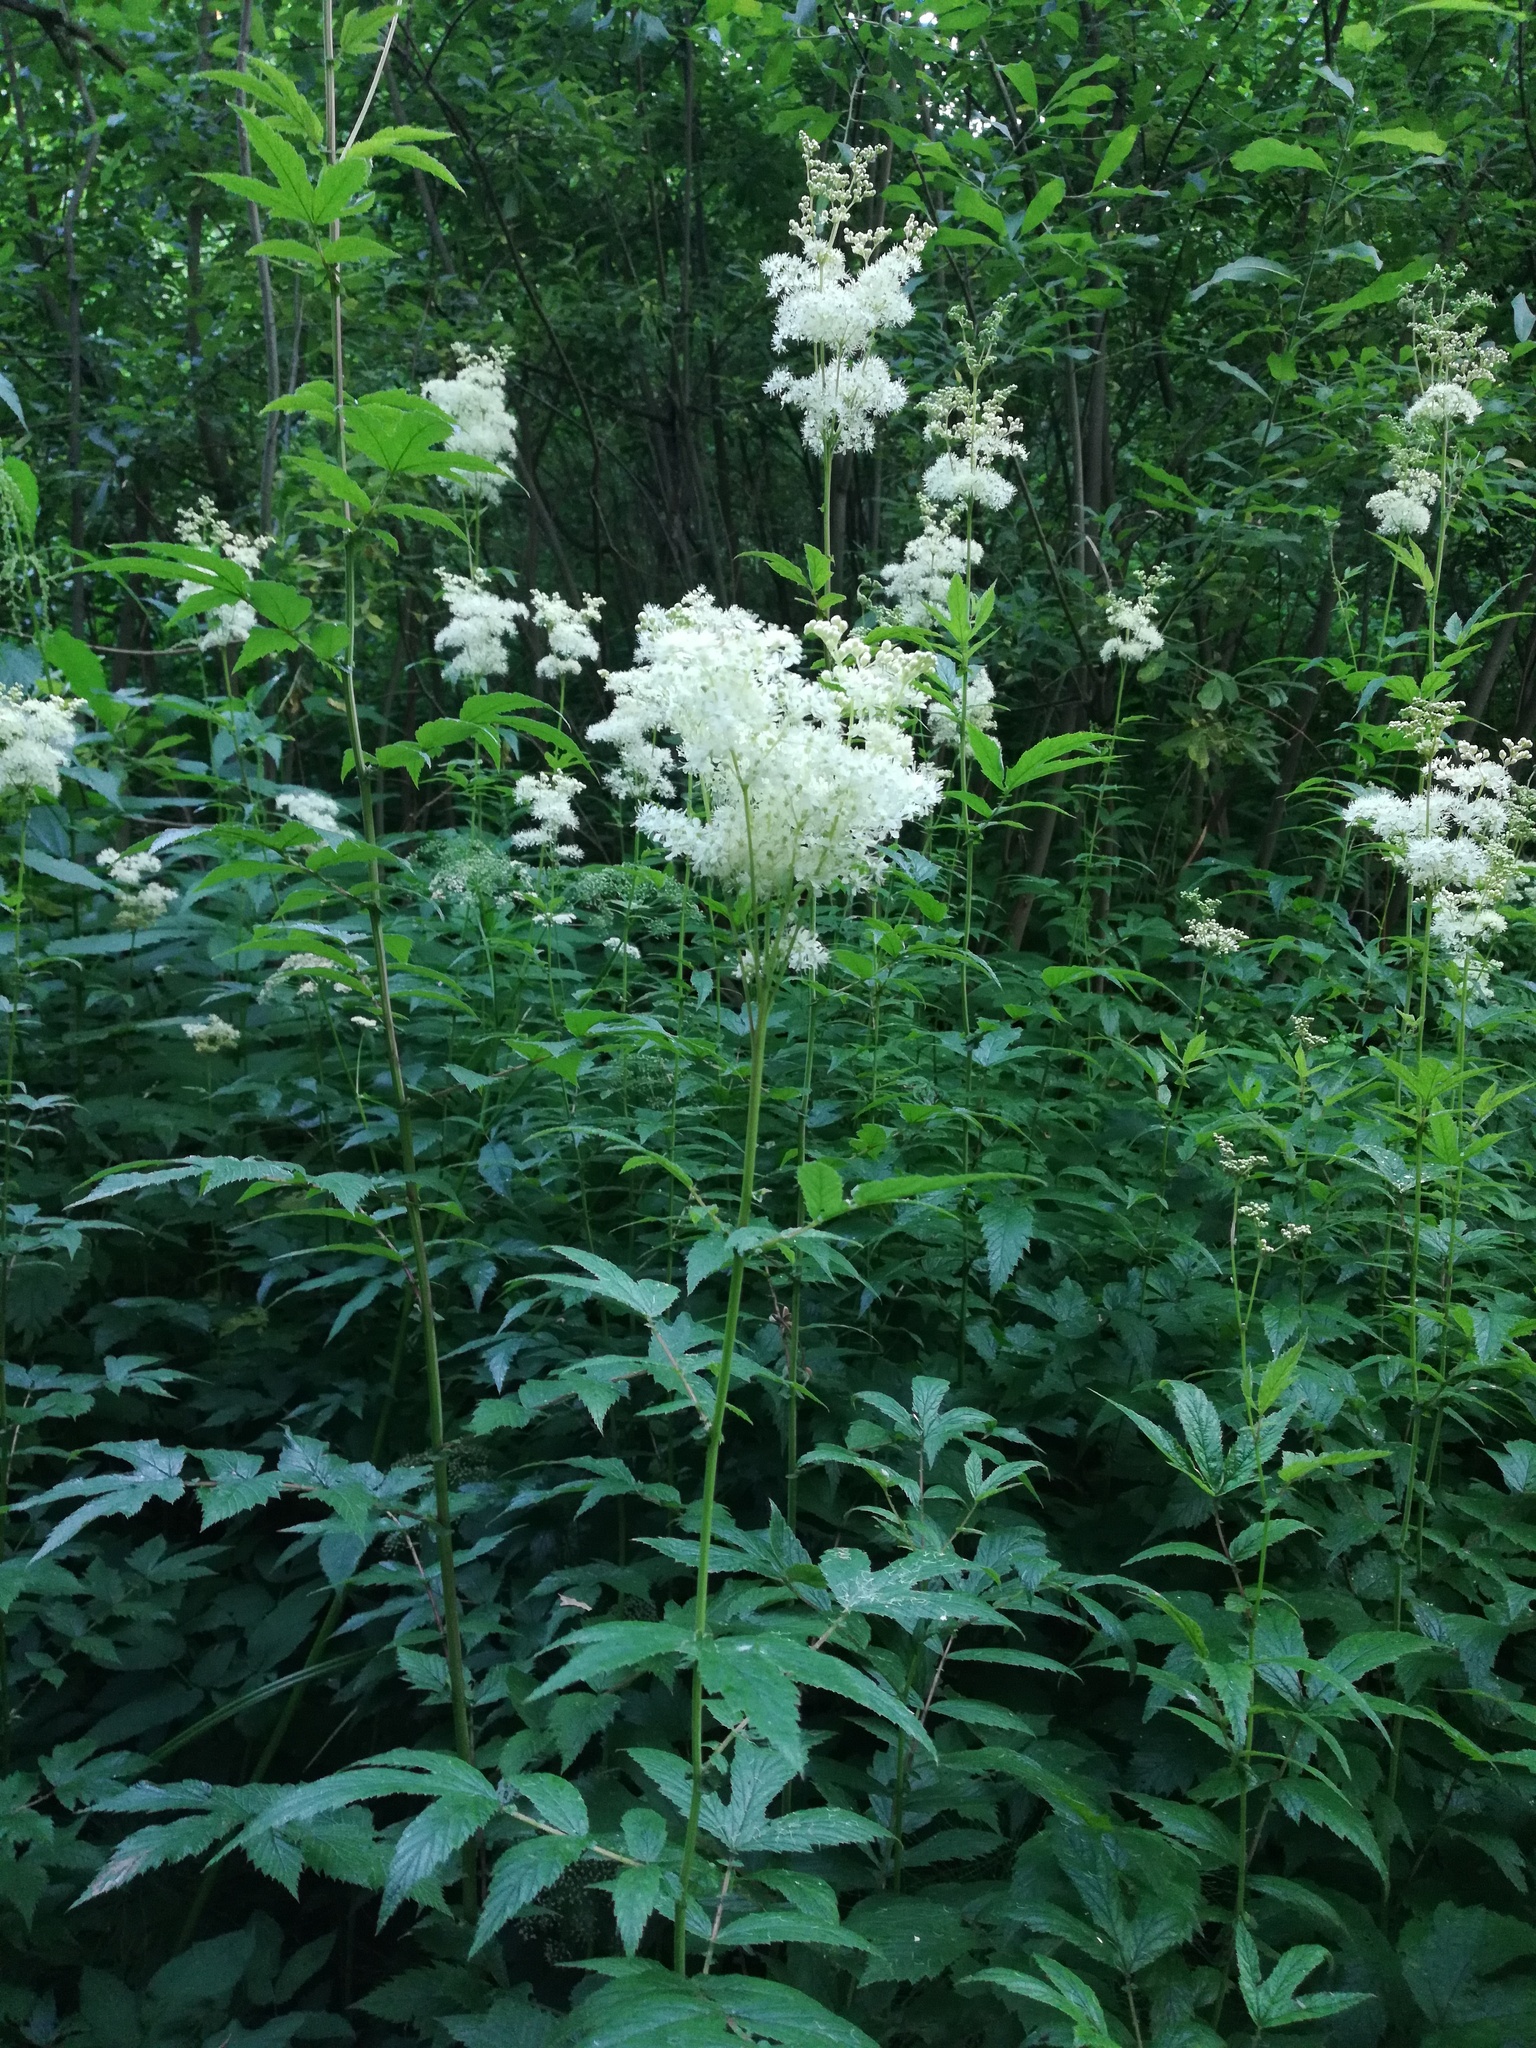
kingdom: Plantae
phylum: Tracheophyta
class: Magnoliopsida
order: Rosales
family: Rosaceae
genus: Filipendula
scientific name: Filipendula ulmaria
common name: Meadowsweet
